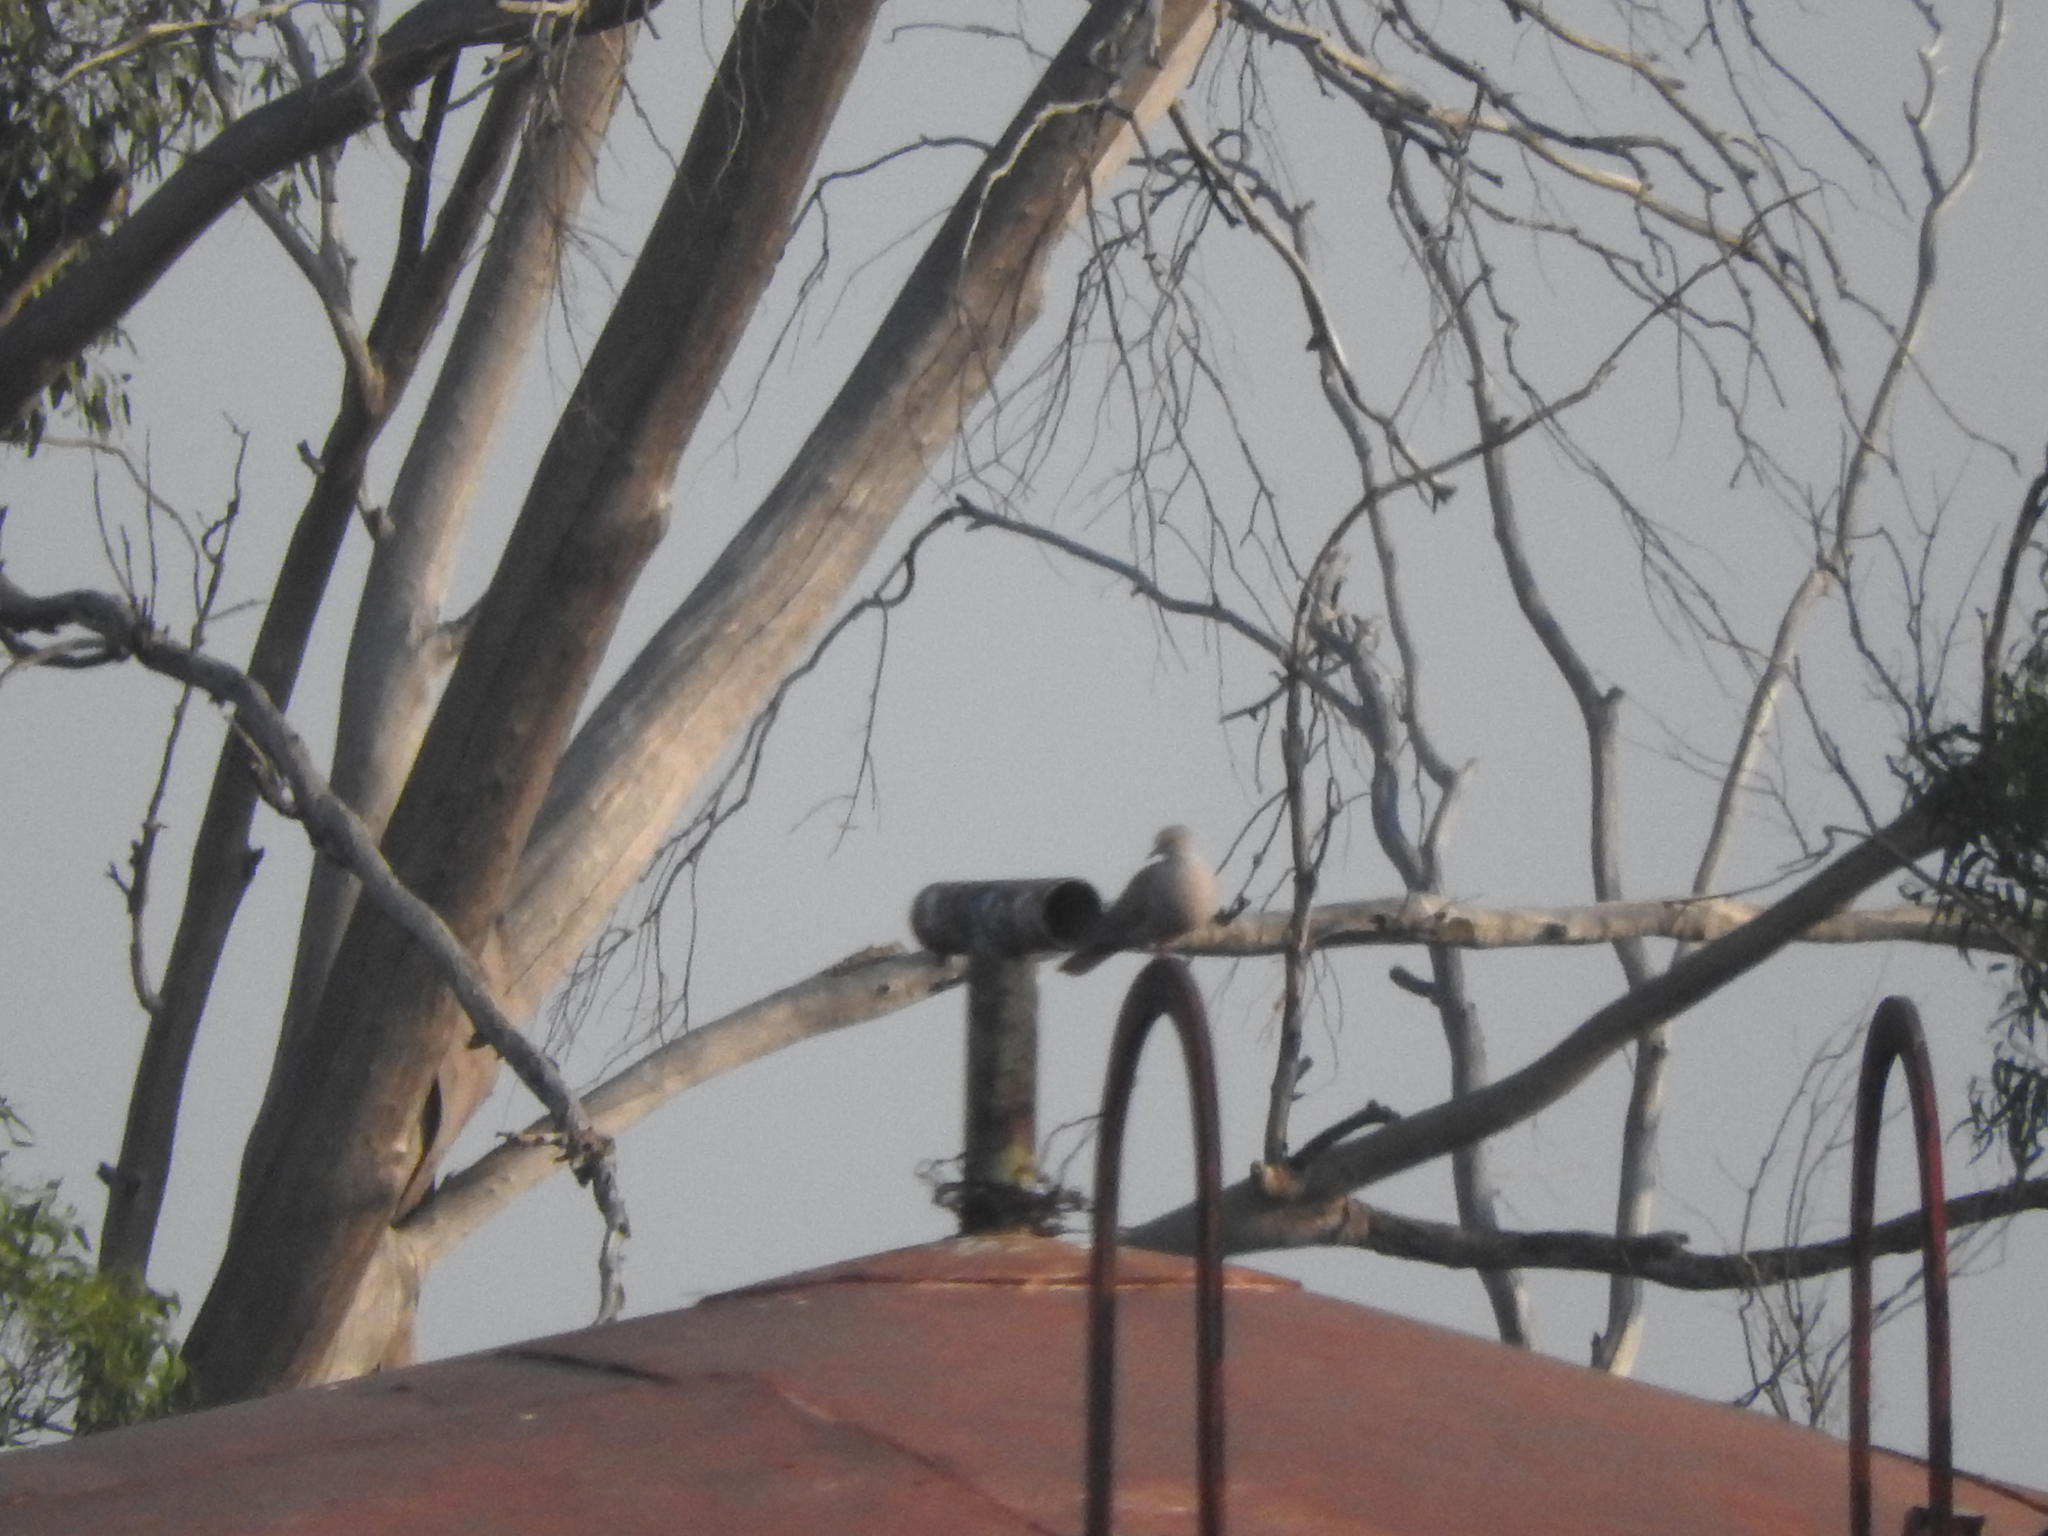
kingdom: Animalia
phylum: Chordata
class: Aves
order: Columbiformes
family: Columbidae
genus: Streptopelia
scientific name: Streptopelia decaocto
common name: Eurasian collared dove
